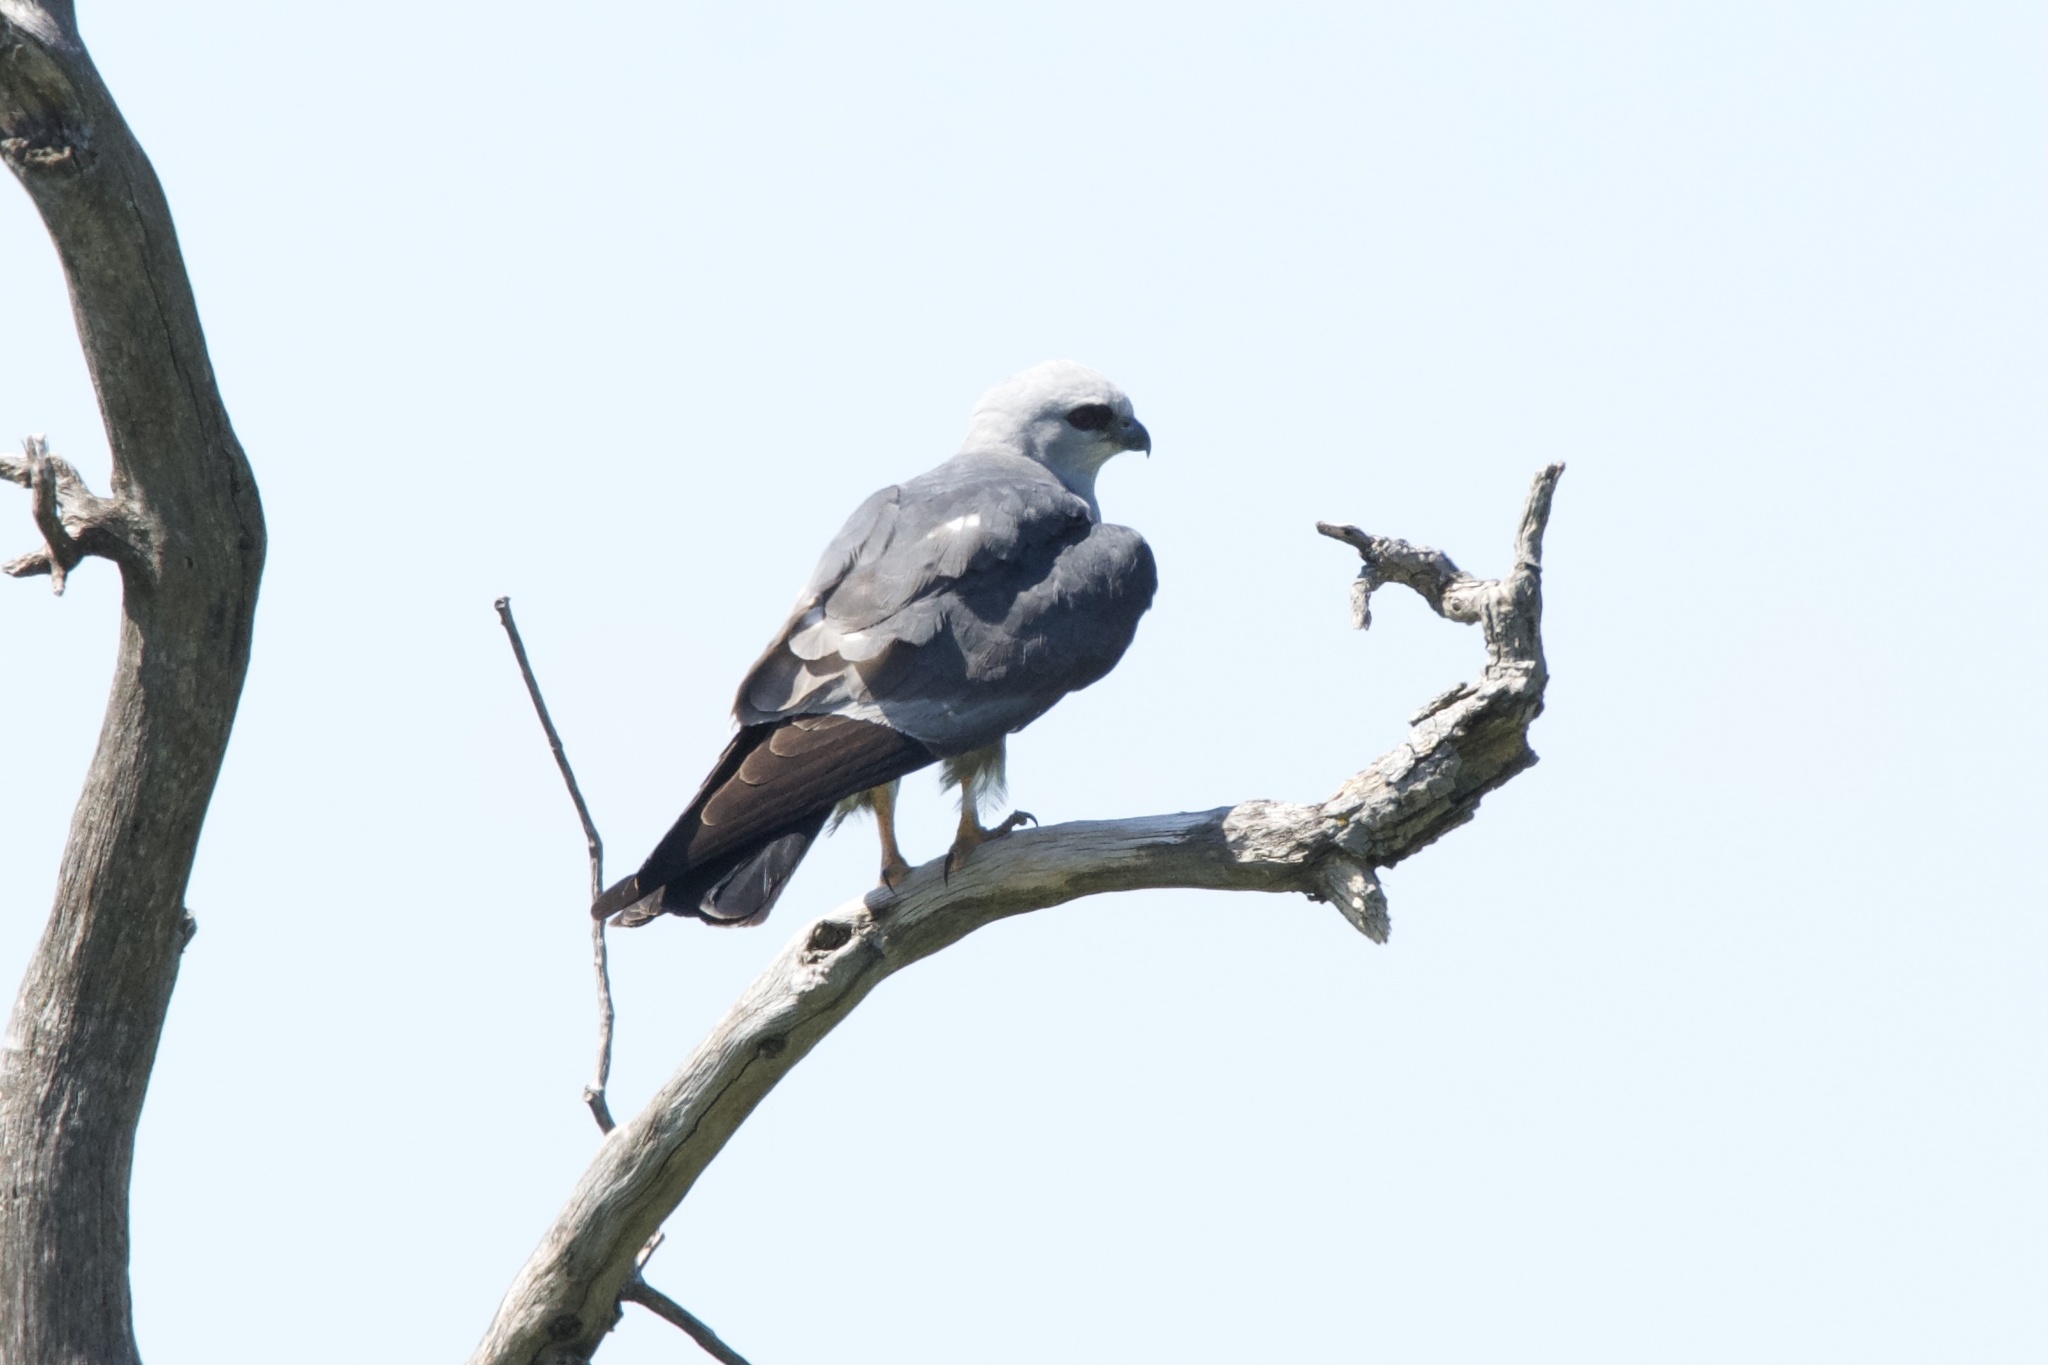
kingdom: Animalia
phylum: Chordata
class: Aves
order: Accipitriformes
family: Accipitridae
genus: Ictinia
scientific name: Ictinia mississippiensis
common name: Mississippi kite
